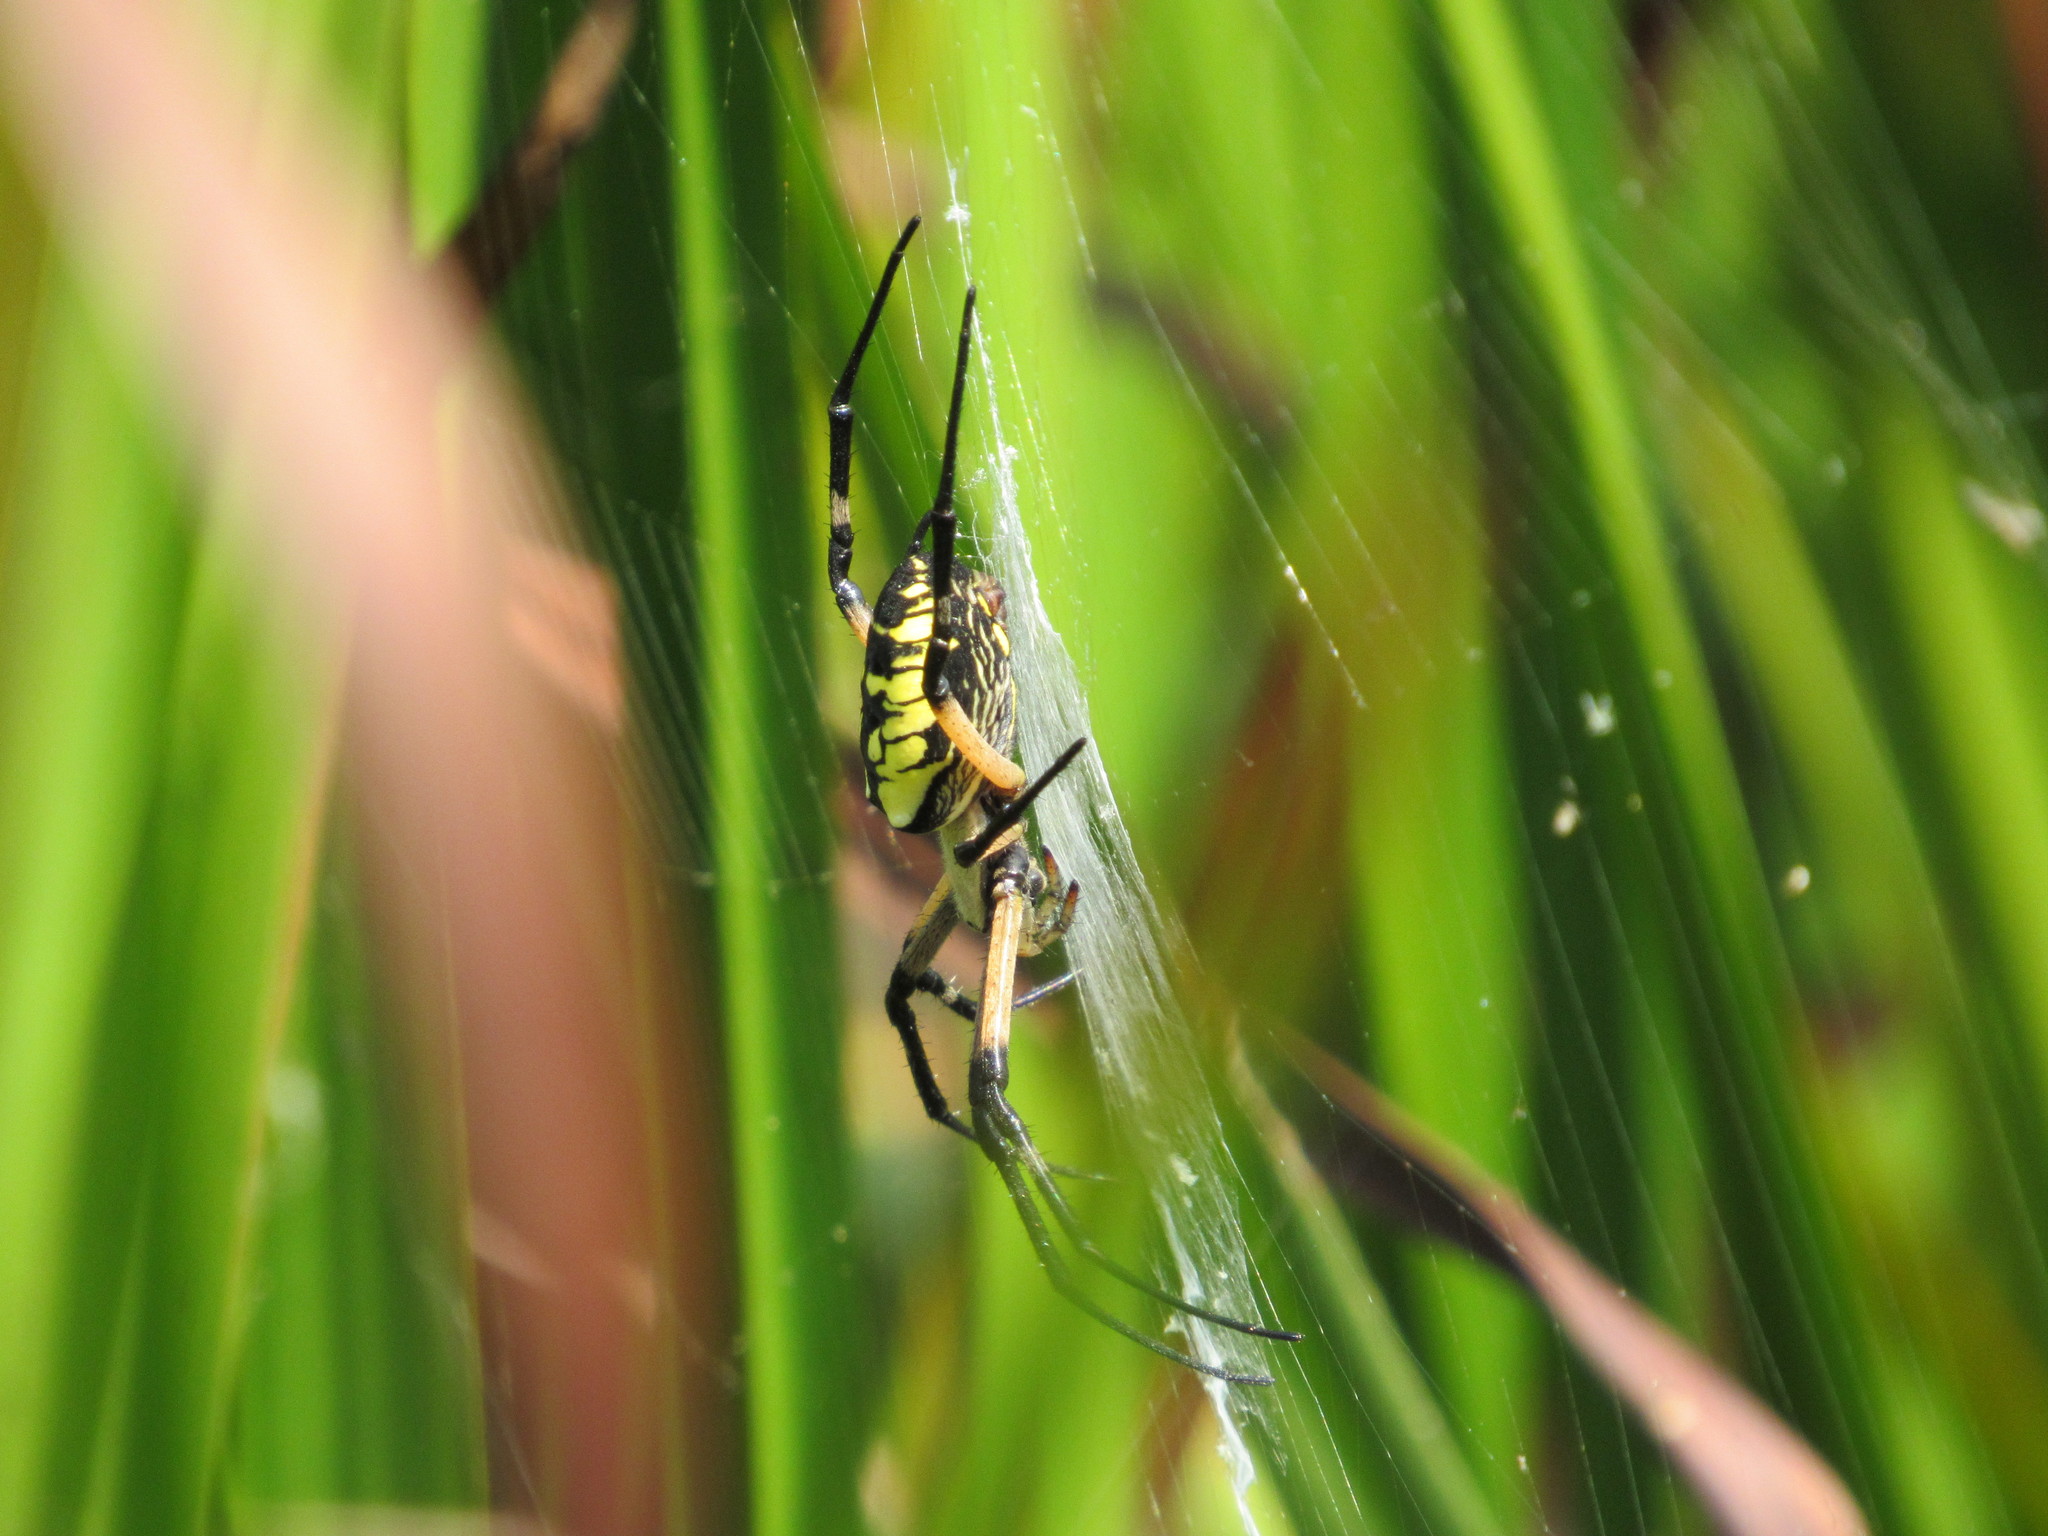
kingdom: Animalia
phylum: Arthropoda
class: Arachnida
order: Araneae
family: Araneidae
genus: Argiope
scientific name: Argiope aurantia
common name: Orb weavers
